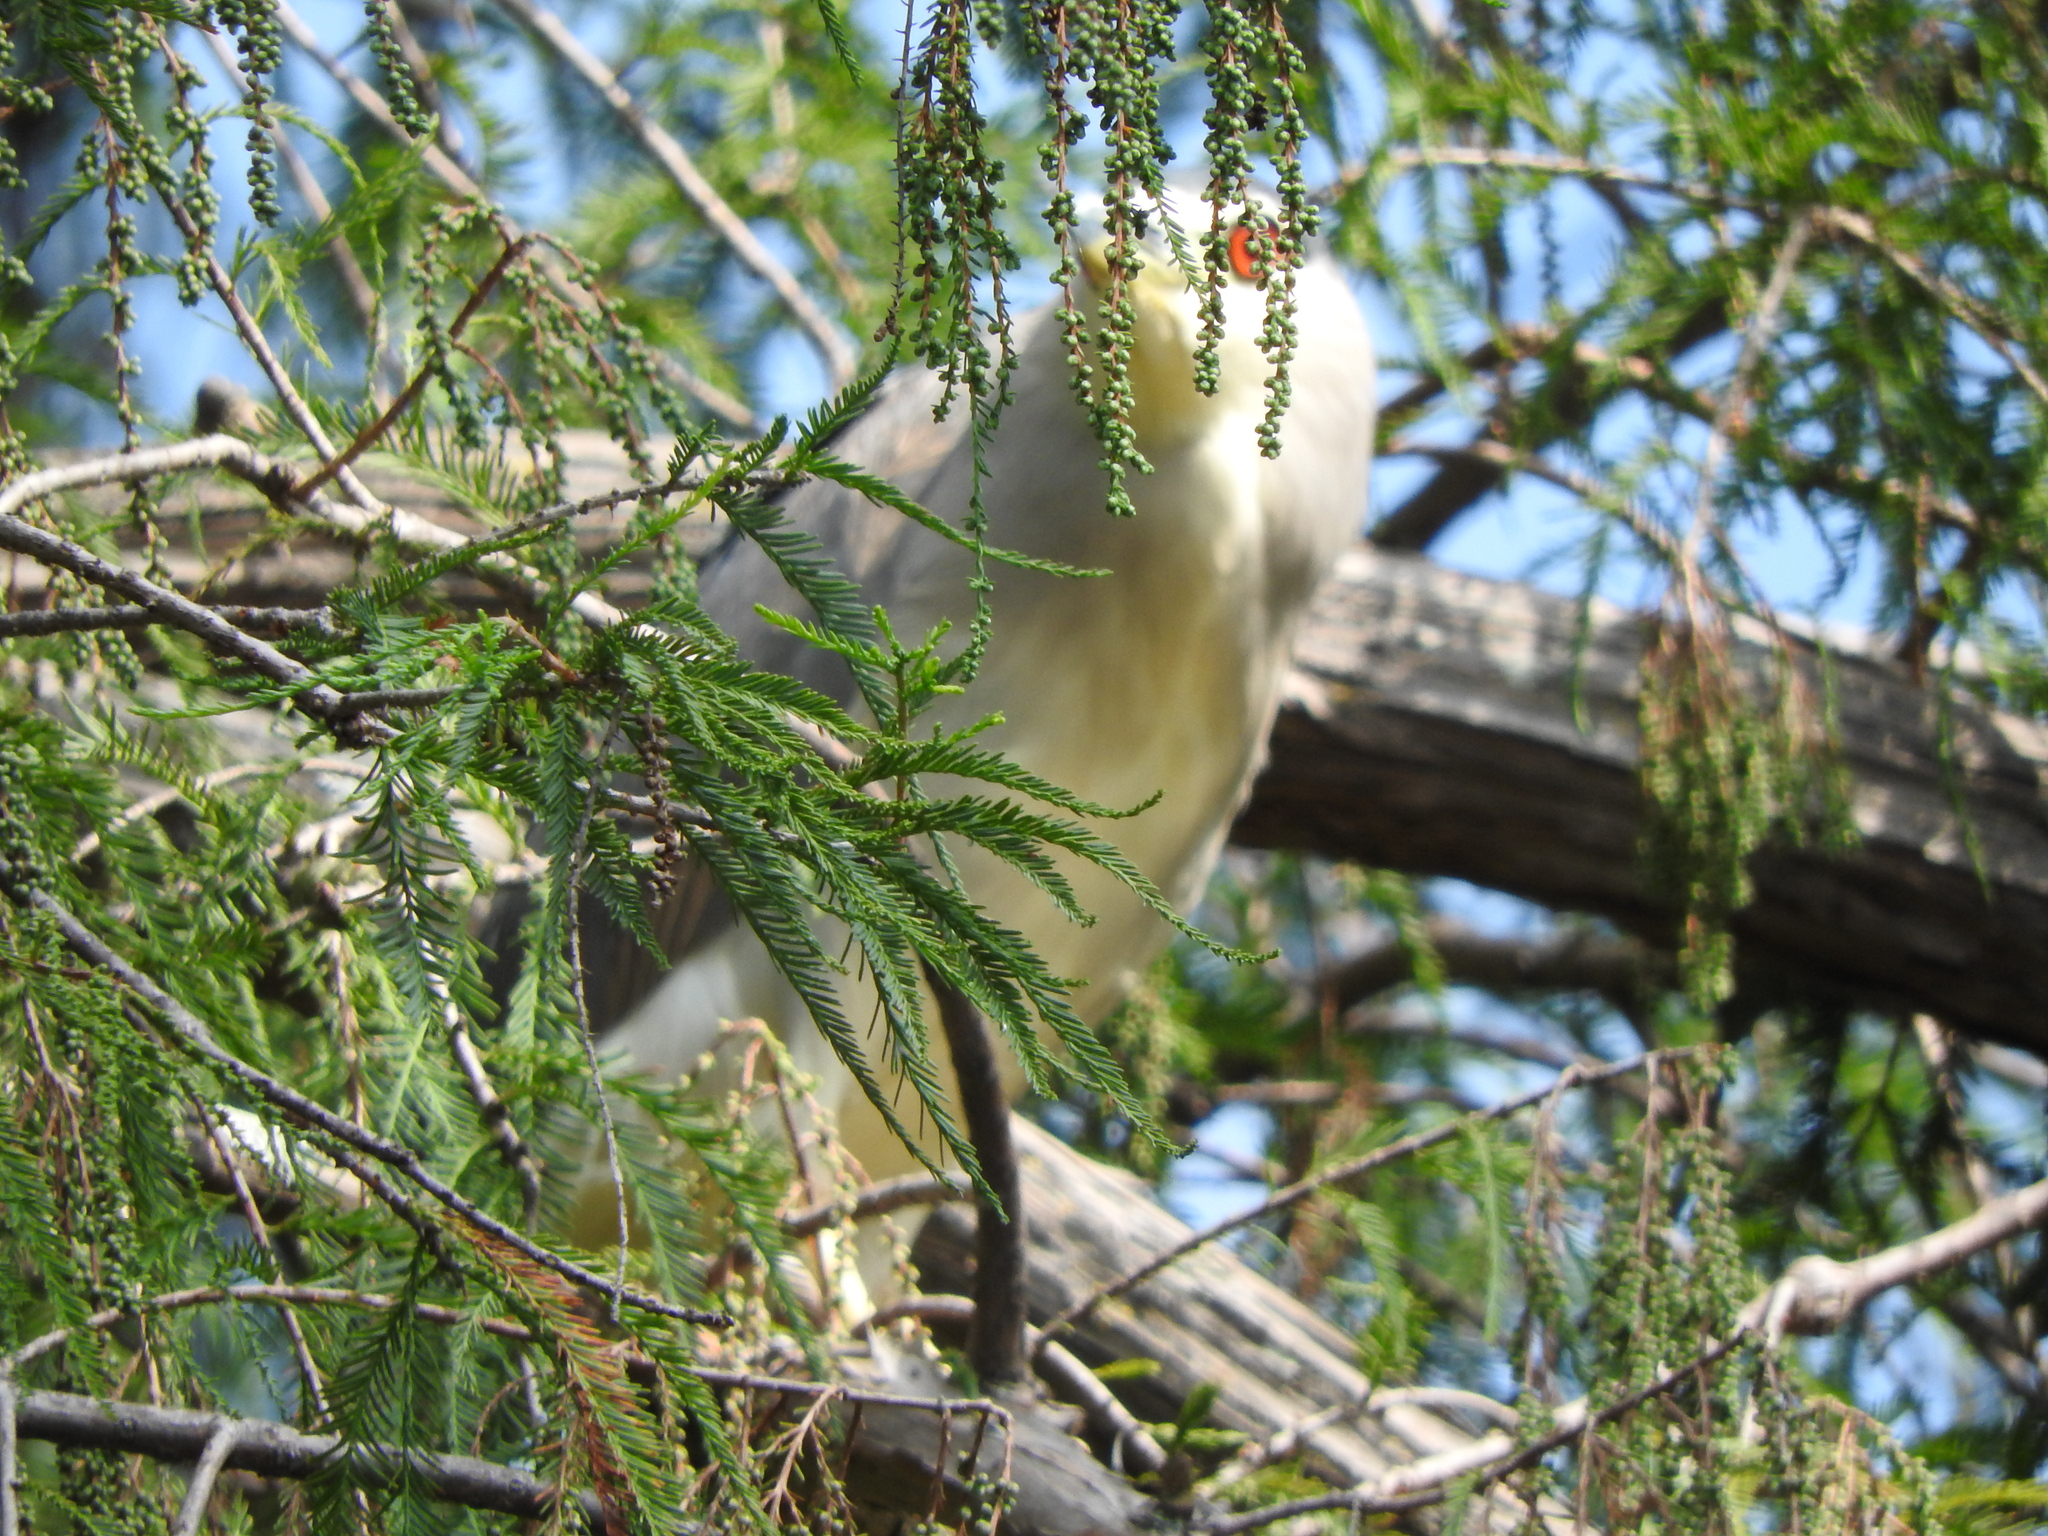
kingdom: Animalia
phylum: Chordata
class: Aves
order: Pelecaniformes
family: Ardeidae
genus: Nycticorax
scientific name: Nycticorax nycticorax
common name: Black-crowned night heron
